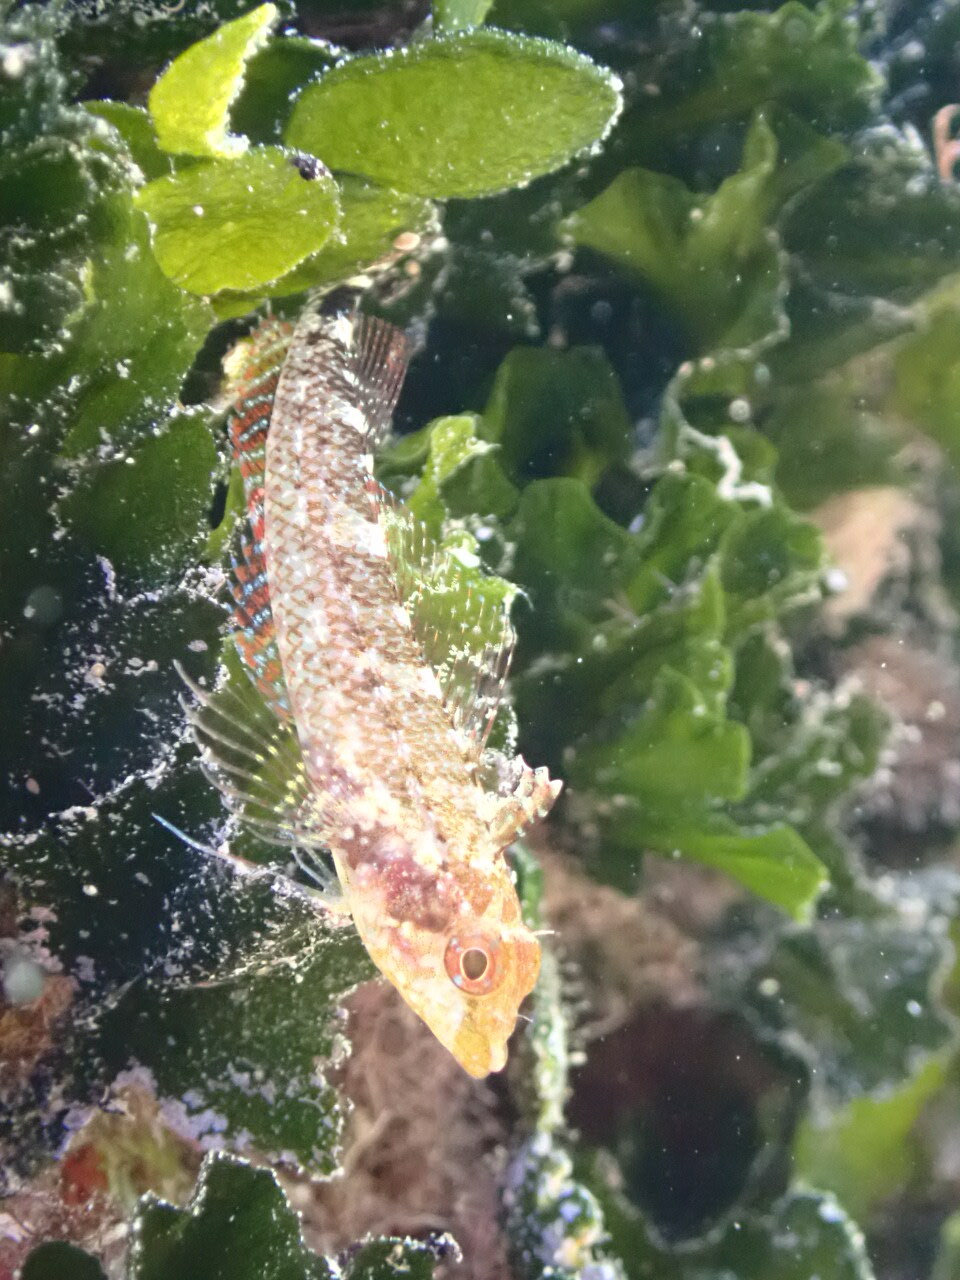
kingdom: Animalia
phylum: Chordata
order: Perciformes
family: Tripterygiidae
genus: Tripterygion
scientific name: Tripterygion delaisi
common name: Black-face blenny
